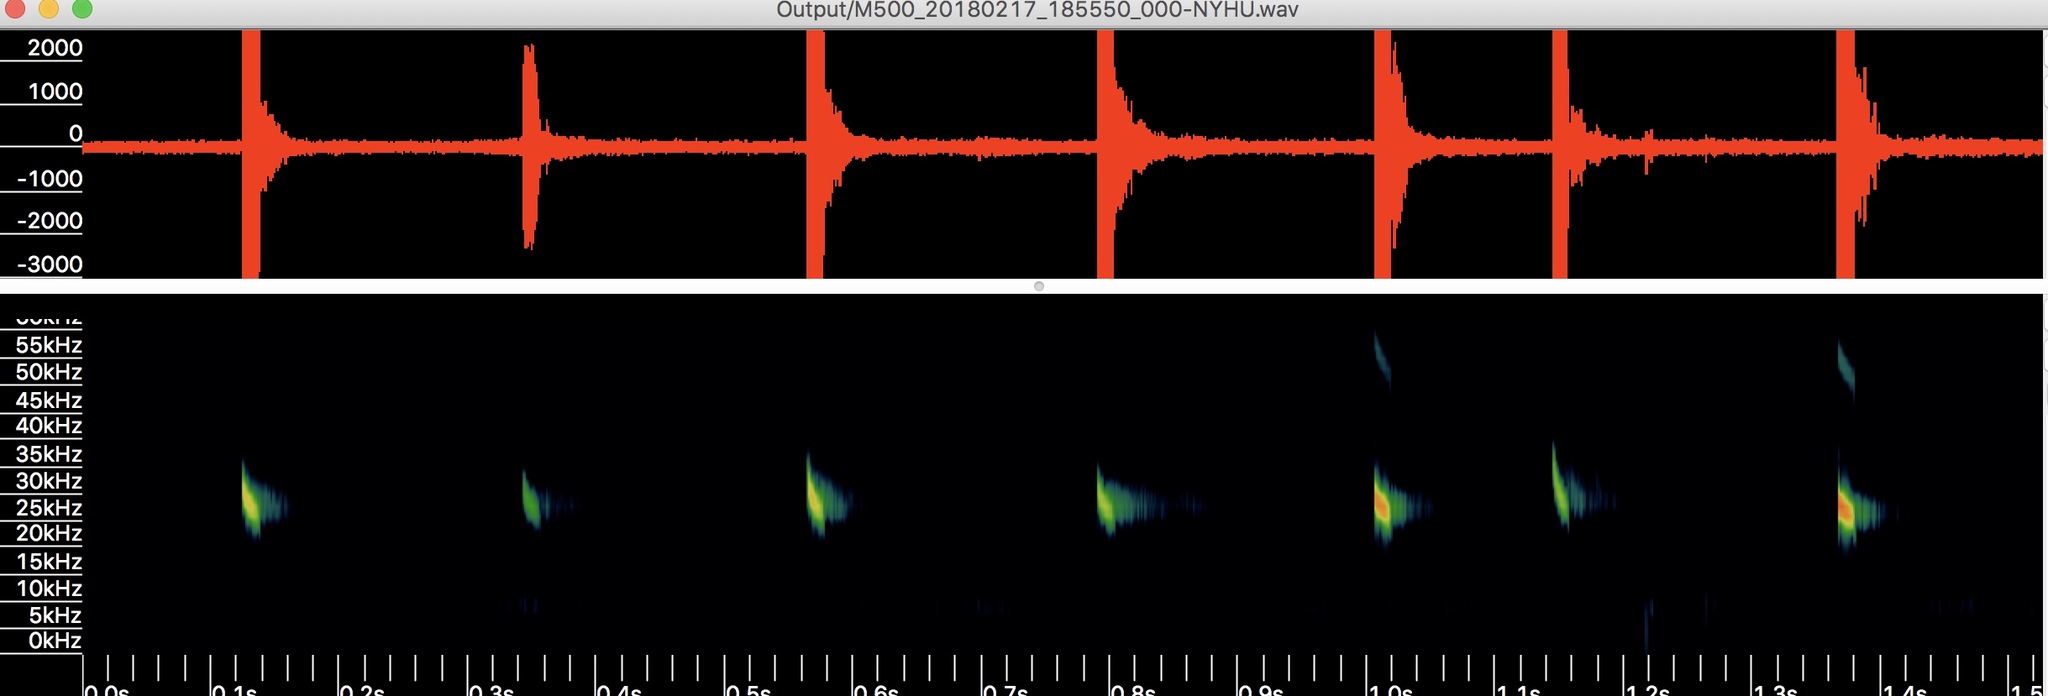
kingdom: Animalia
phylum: Chordata
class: Mammalia
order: Chiroptera
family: Vespertilionidae
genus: Nycticeius
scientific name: Nycticeius humeralis
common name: Evening bat
